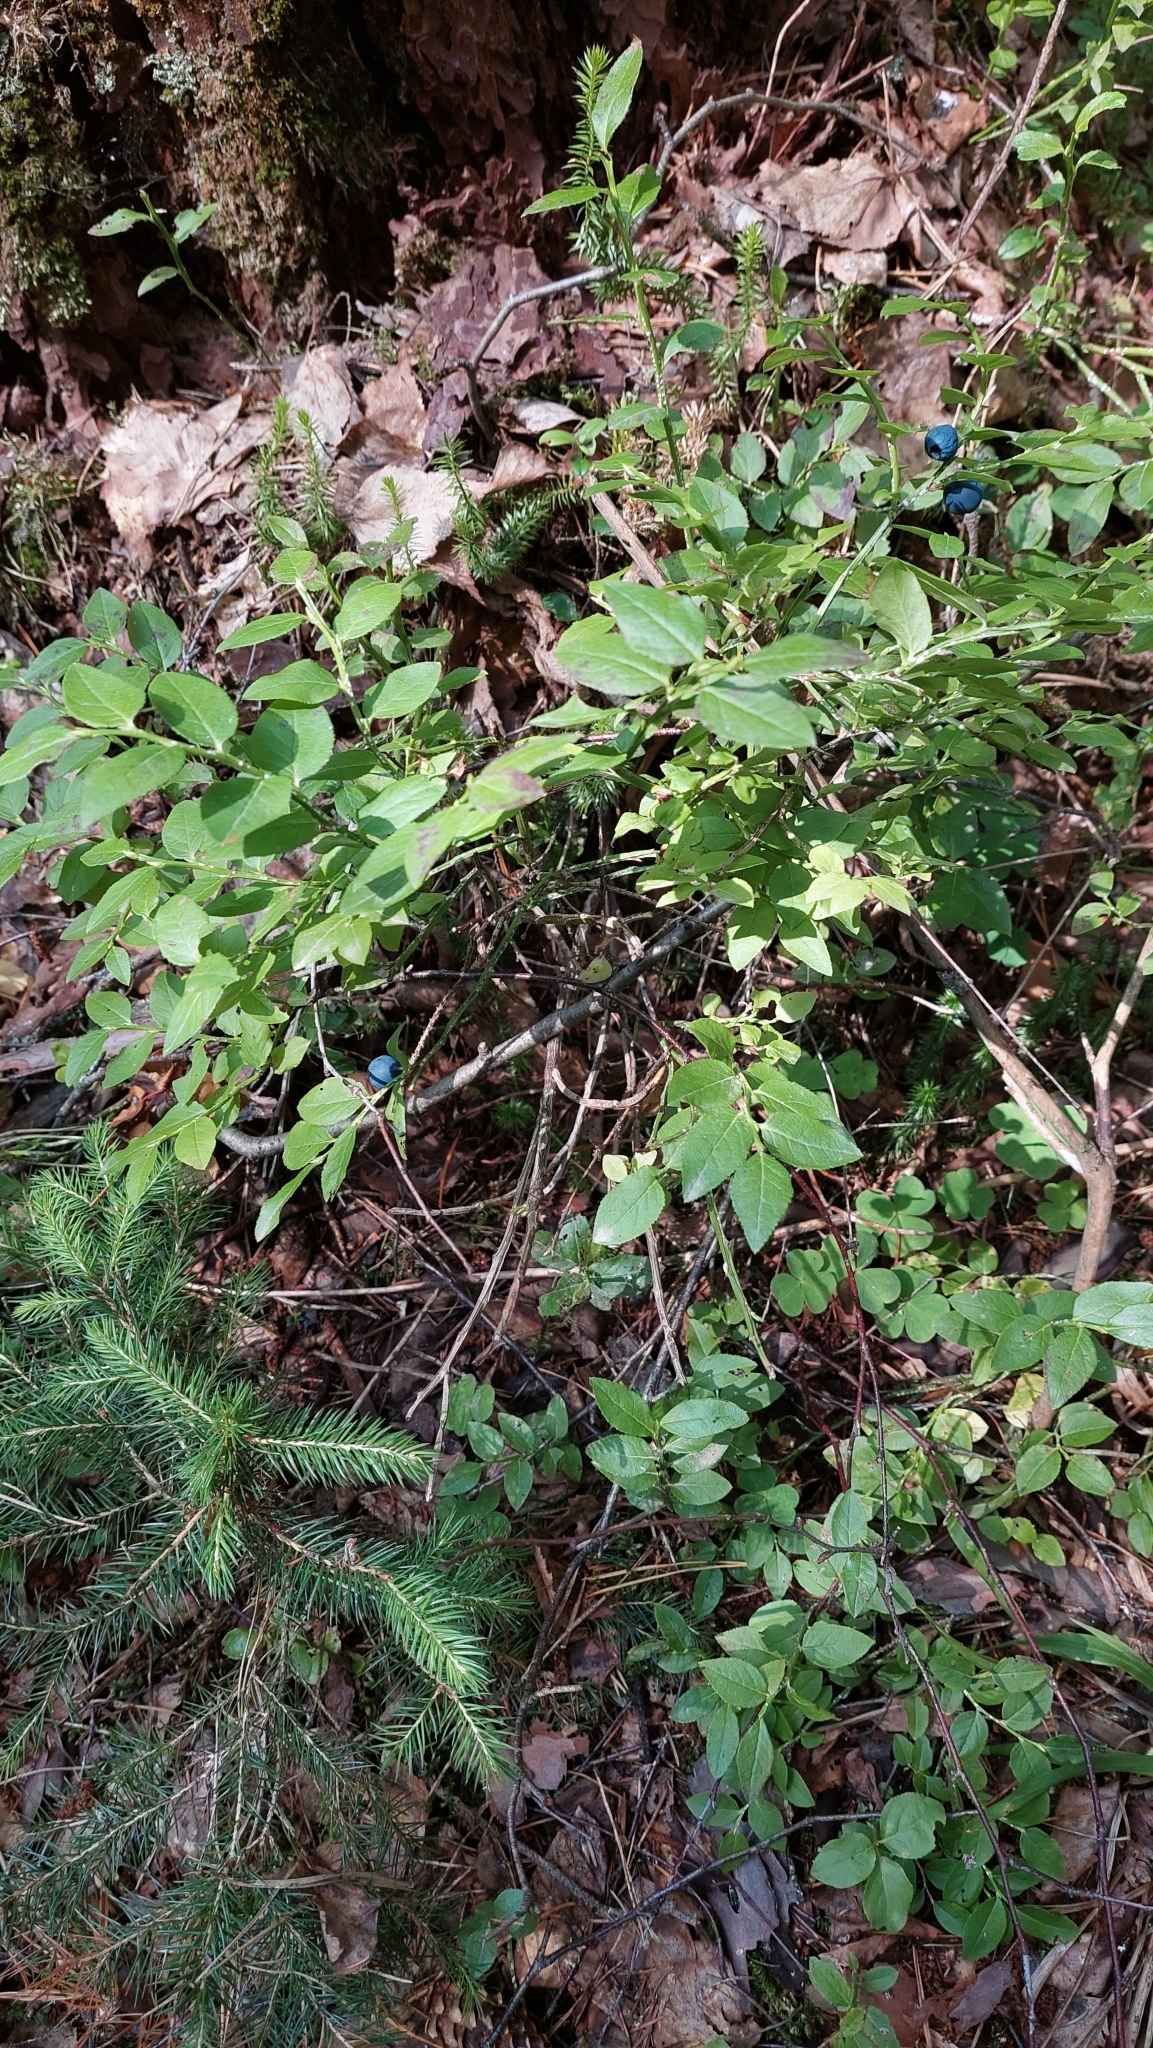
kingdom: Plantae
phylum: Tracheophyta
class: Magnoliopsida
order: Ericales
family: Ericaceae
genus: Vaccinium
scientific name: Vaccinium myrtillus
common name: Bilberry
